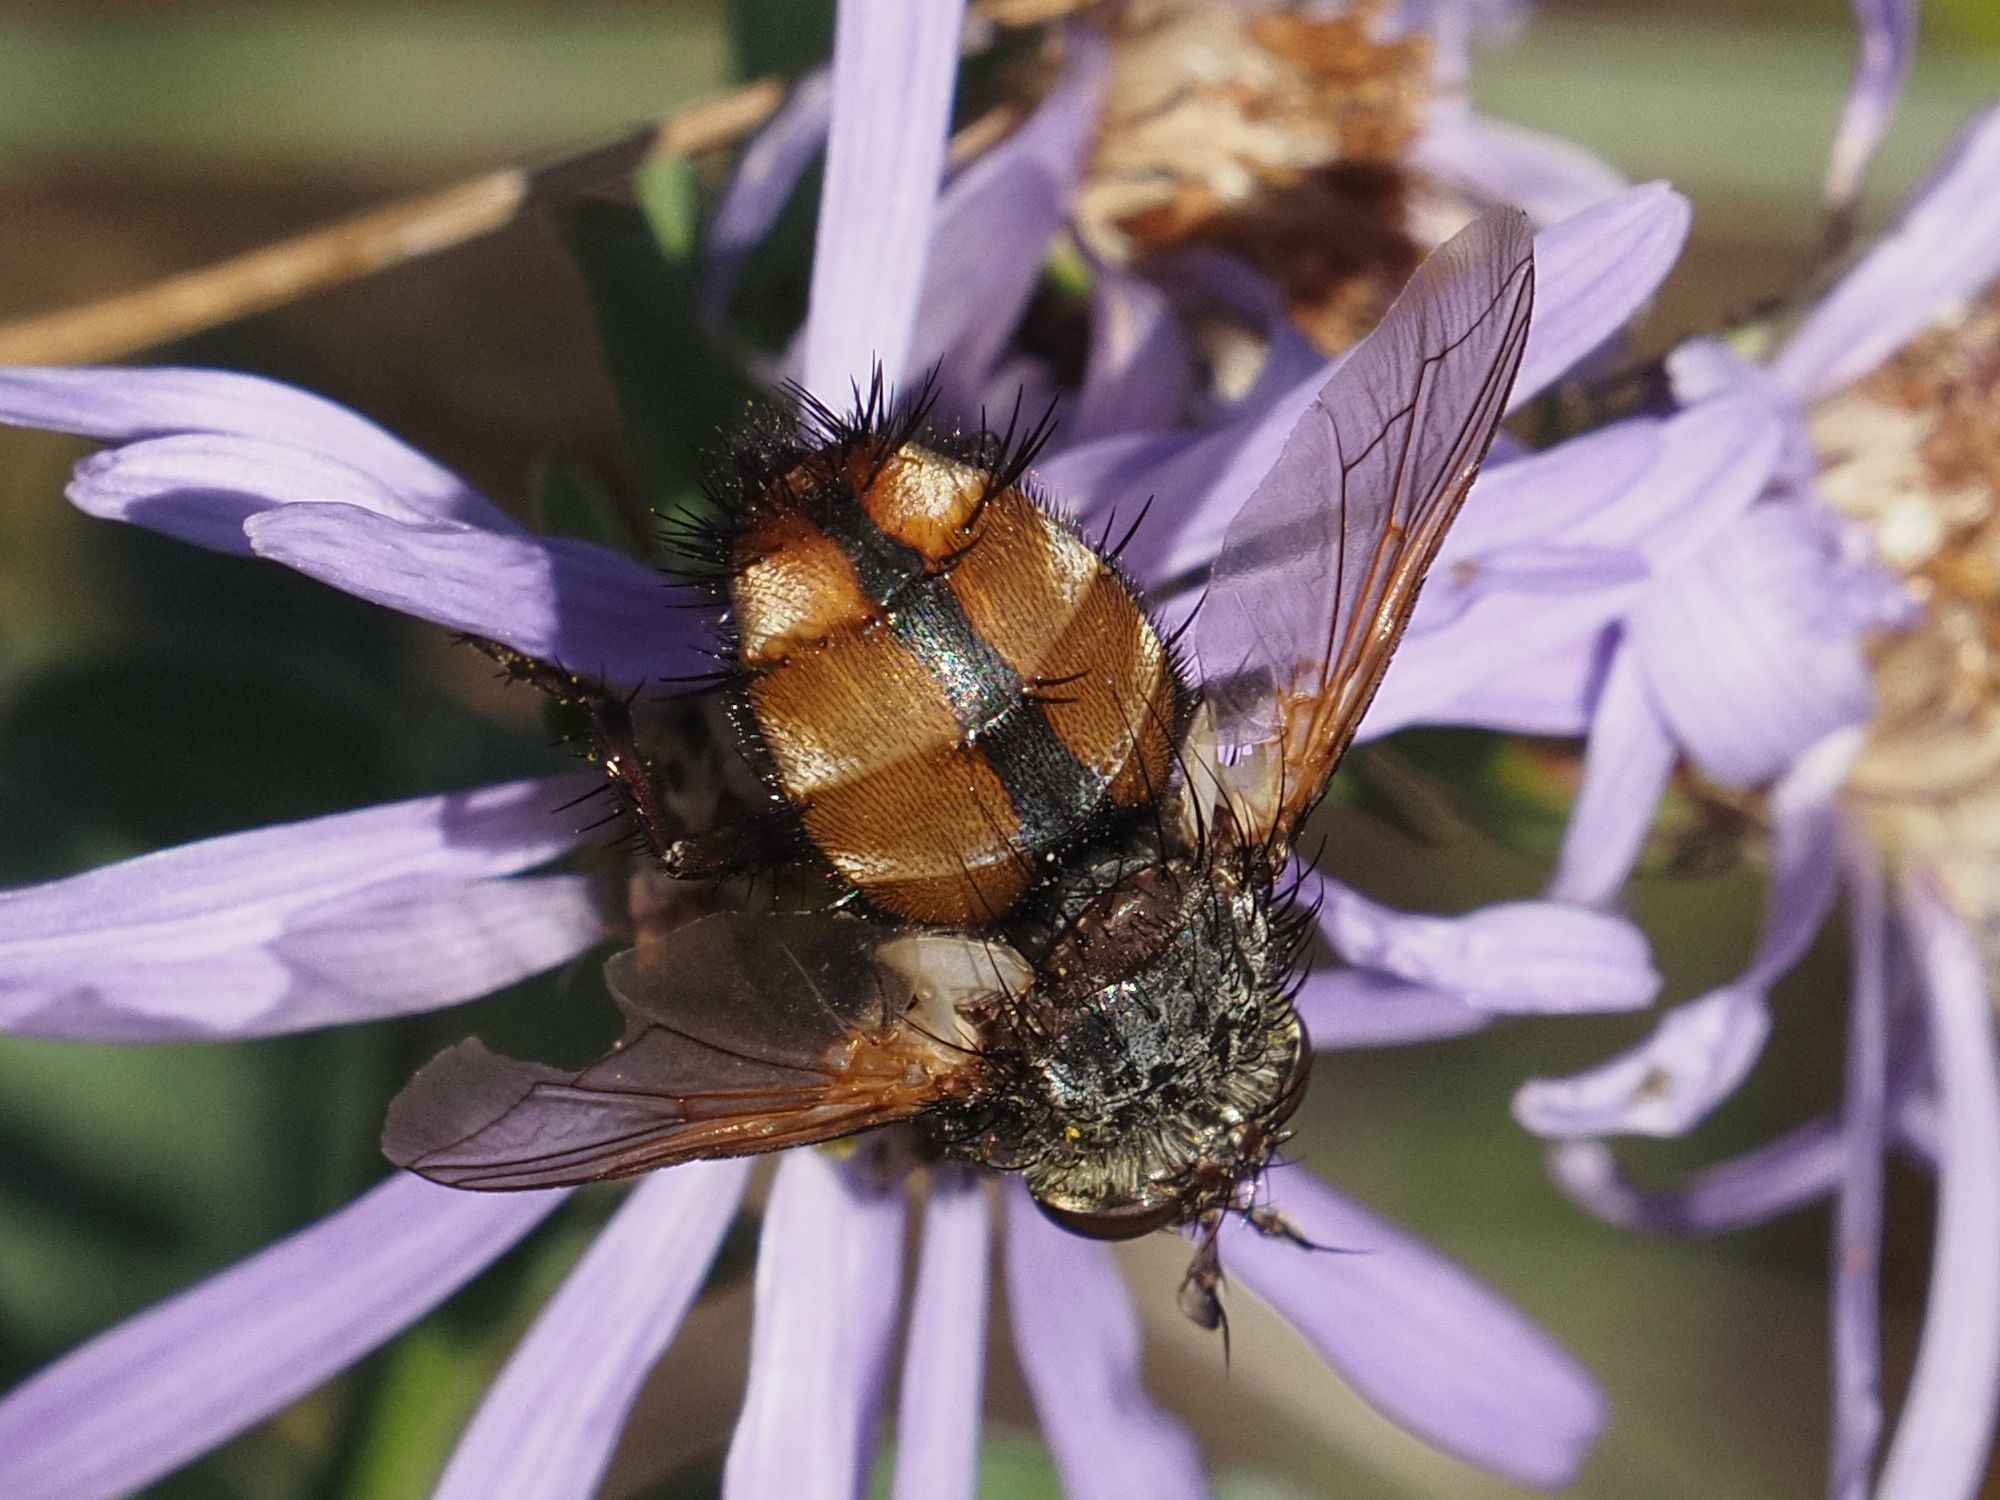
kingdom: Animalia
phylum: Arthropoda
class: Insecta
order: Diptera
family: Tachinidae
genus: Tachina
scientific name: Tachina fera
